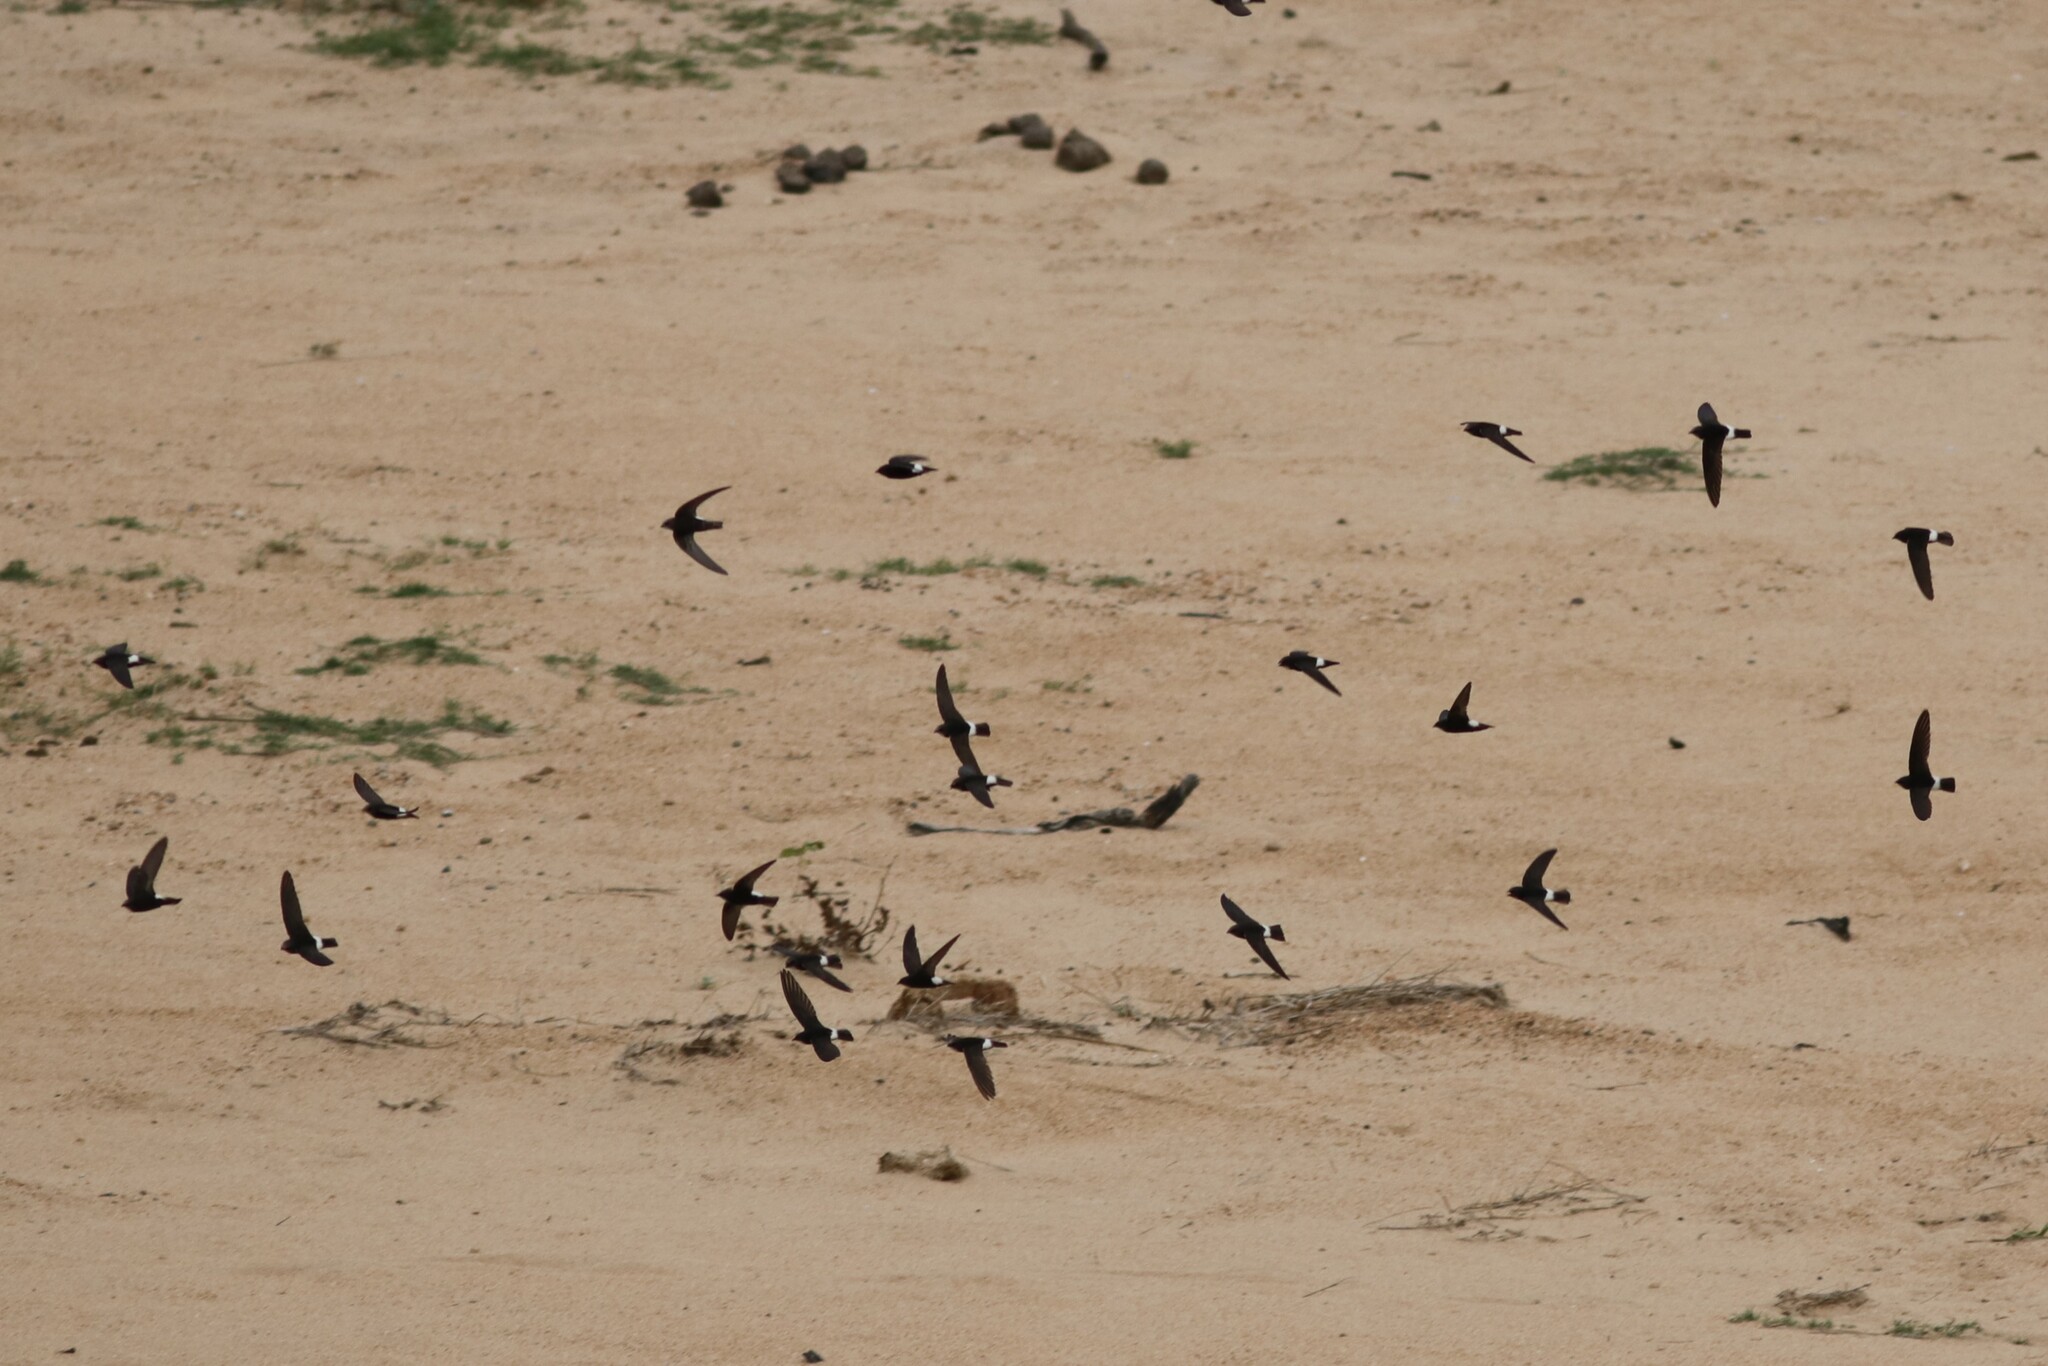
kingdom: Animalia
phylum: Chordata
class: Aves
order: Apodiformes
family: Apodidae
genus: Apus
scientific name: Apus affinis
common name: Little swift
